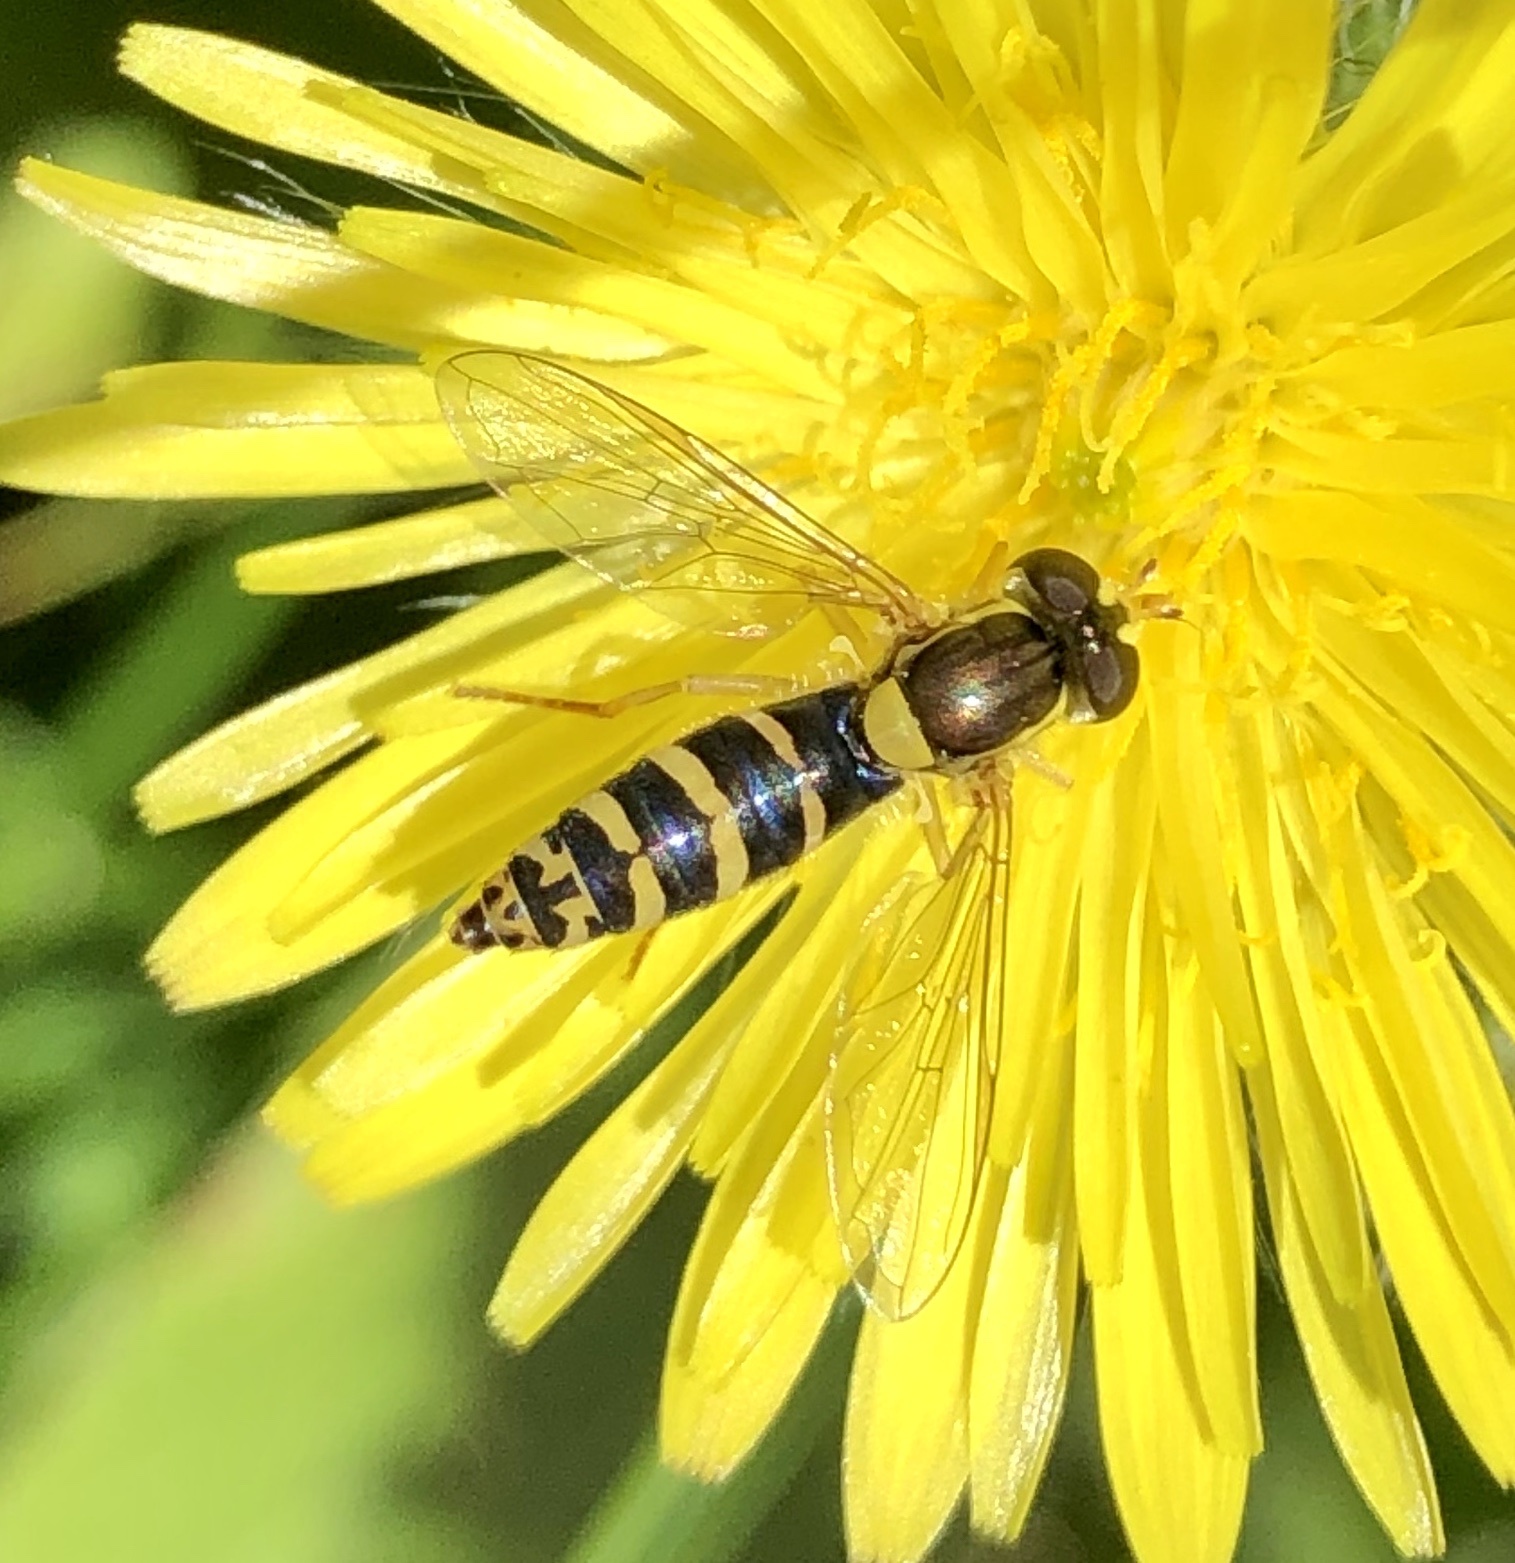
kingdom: Animalia
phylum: Arthropoda
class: Insecta
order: Diptera
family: Syrphidae
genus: Sphaerophoria
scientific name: Sphaerophoria
